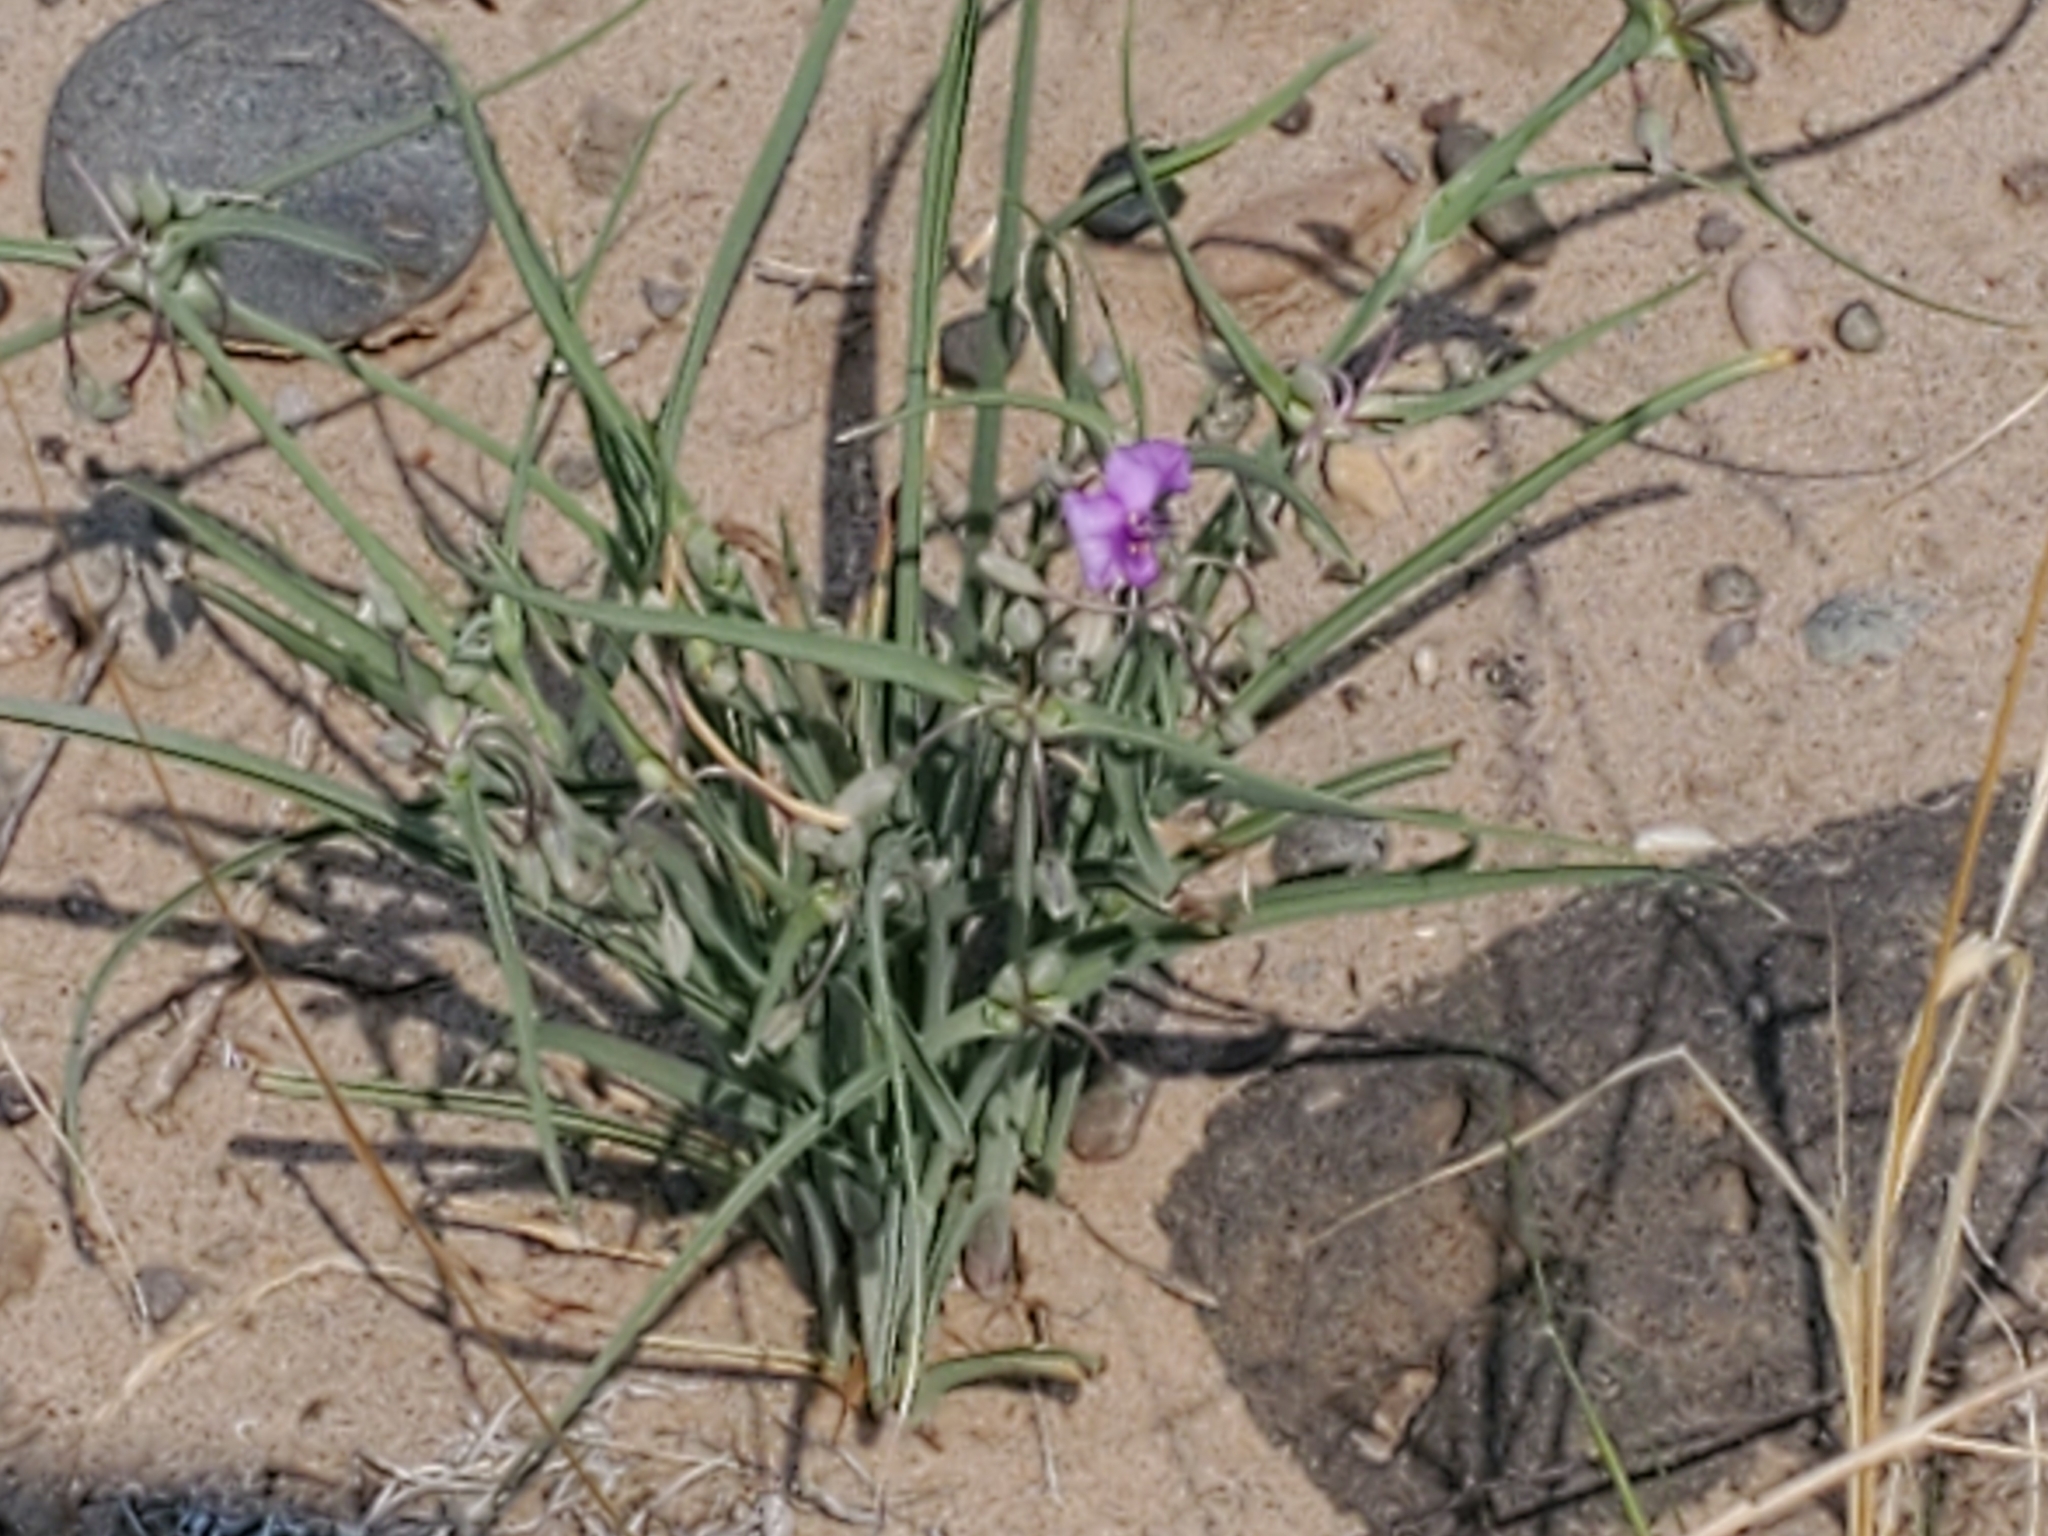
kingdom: Plantae
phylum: Tracheophyta
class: Liliopsida
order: Commelinales
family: Commelinaceae
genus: Tradescantia
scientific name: Tradescantia occidentalis
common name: Prairie spiderwort
